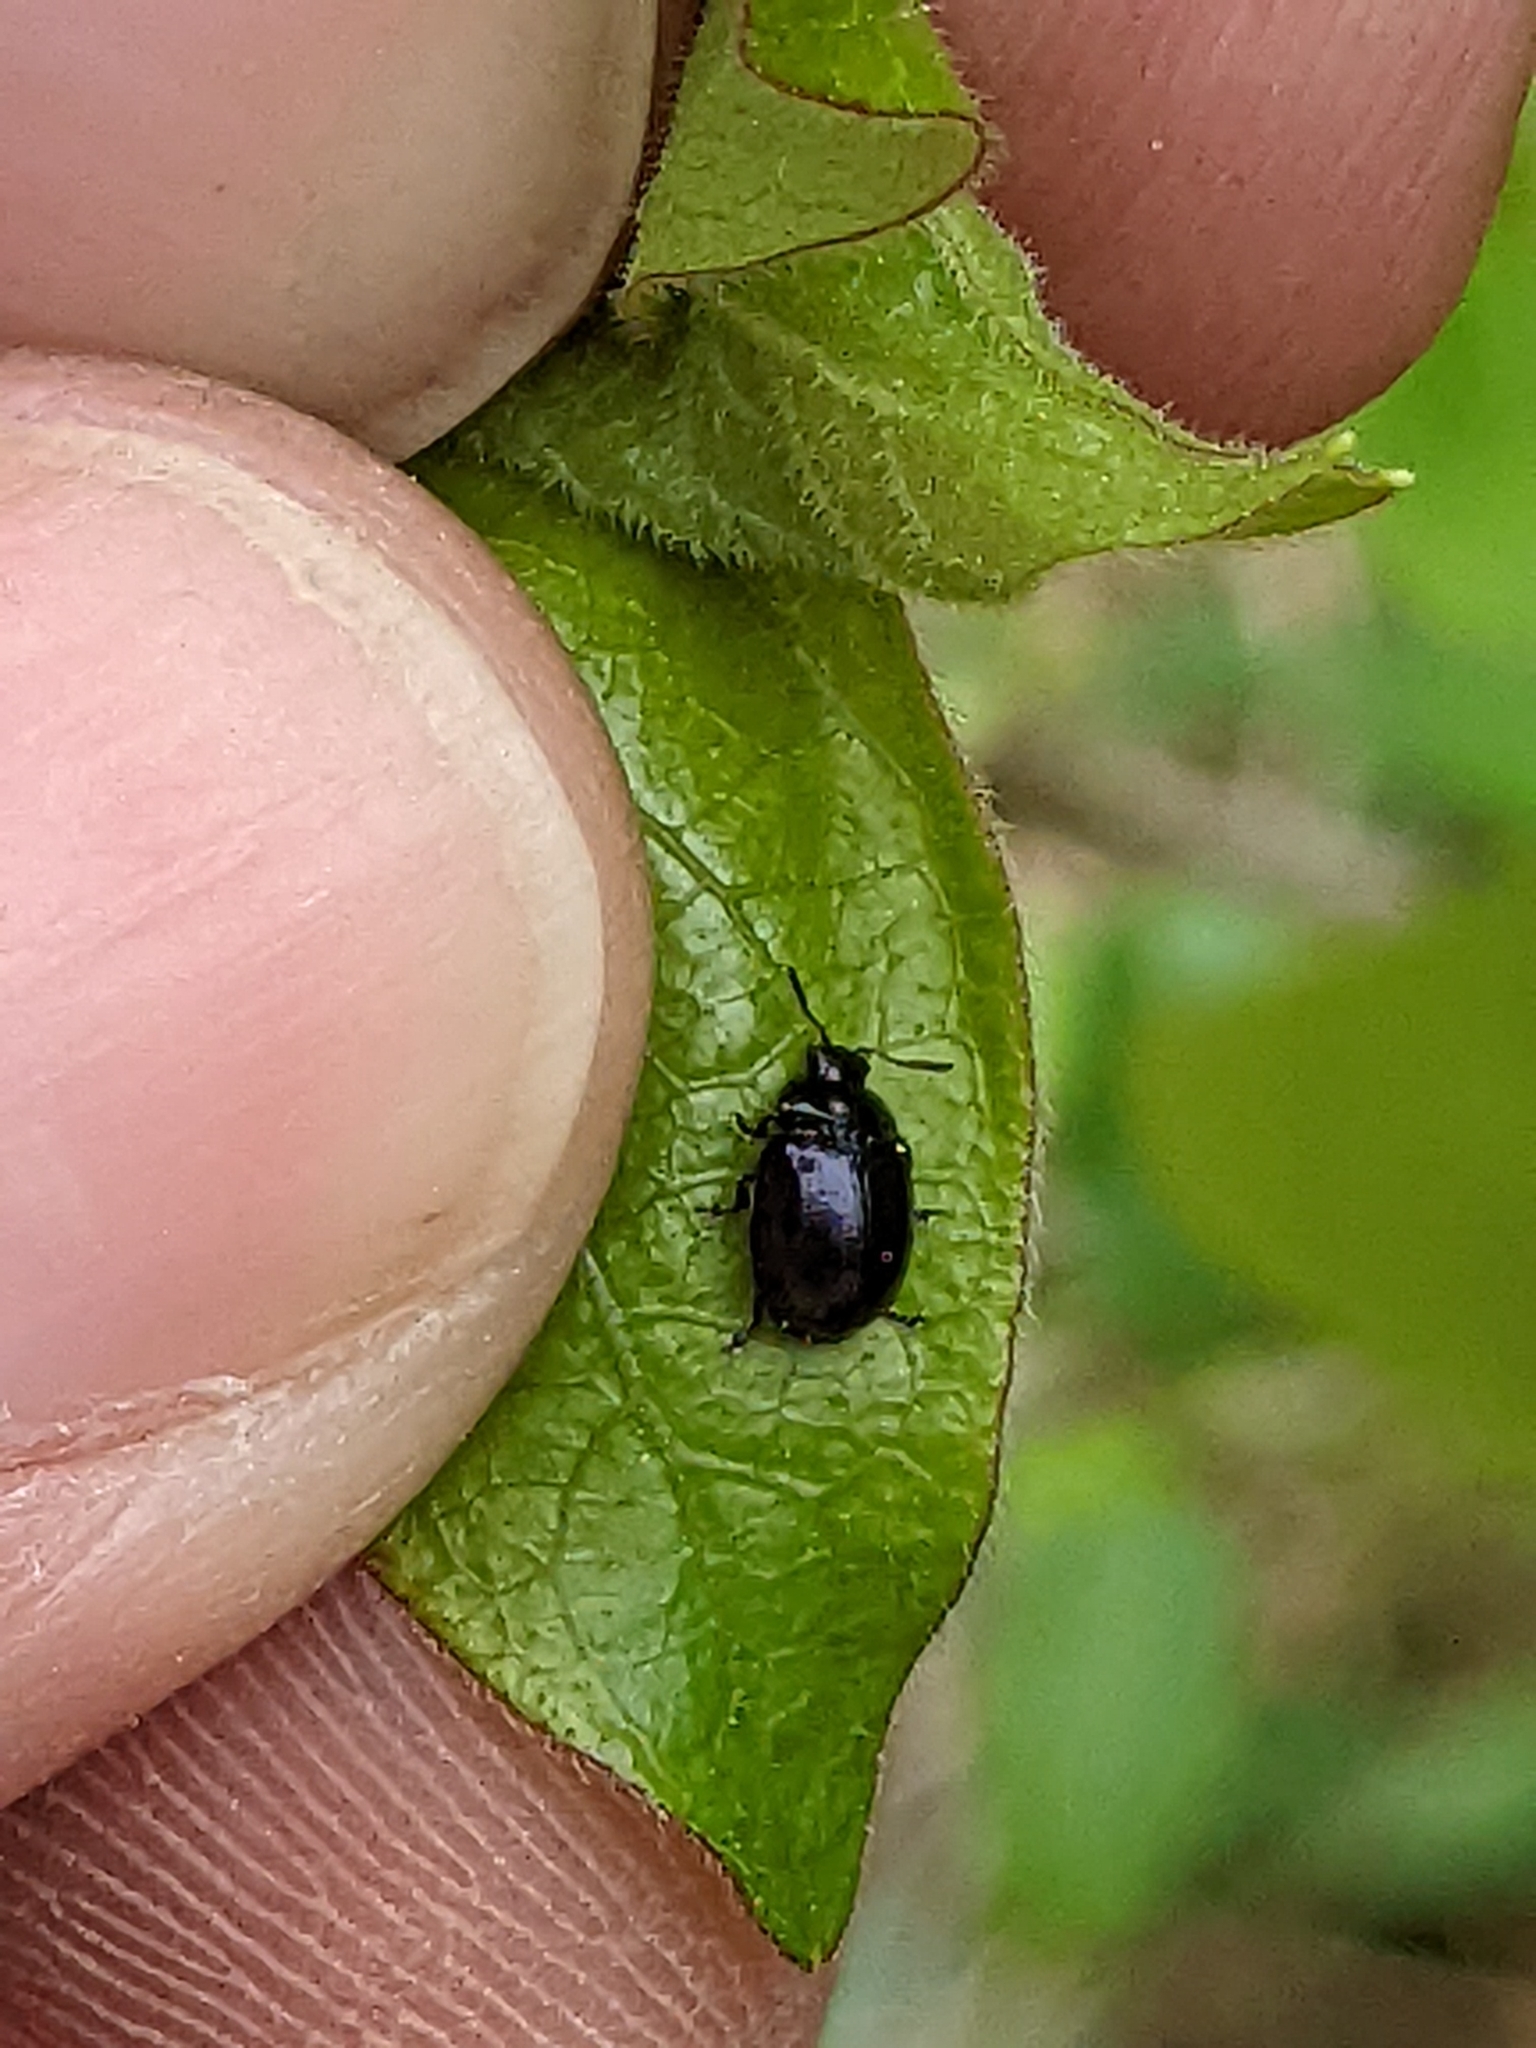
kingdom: Animalia
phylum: Arthropoda
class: Insecta
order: Coleoptera
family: Chrysomelidae
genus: Plagiodera
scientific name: Plagiodera versicolora
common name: Imported willow leaf beetle
